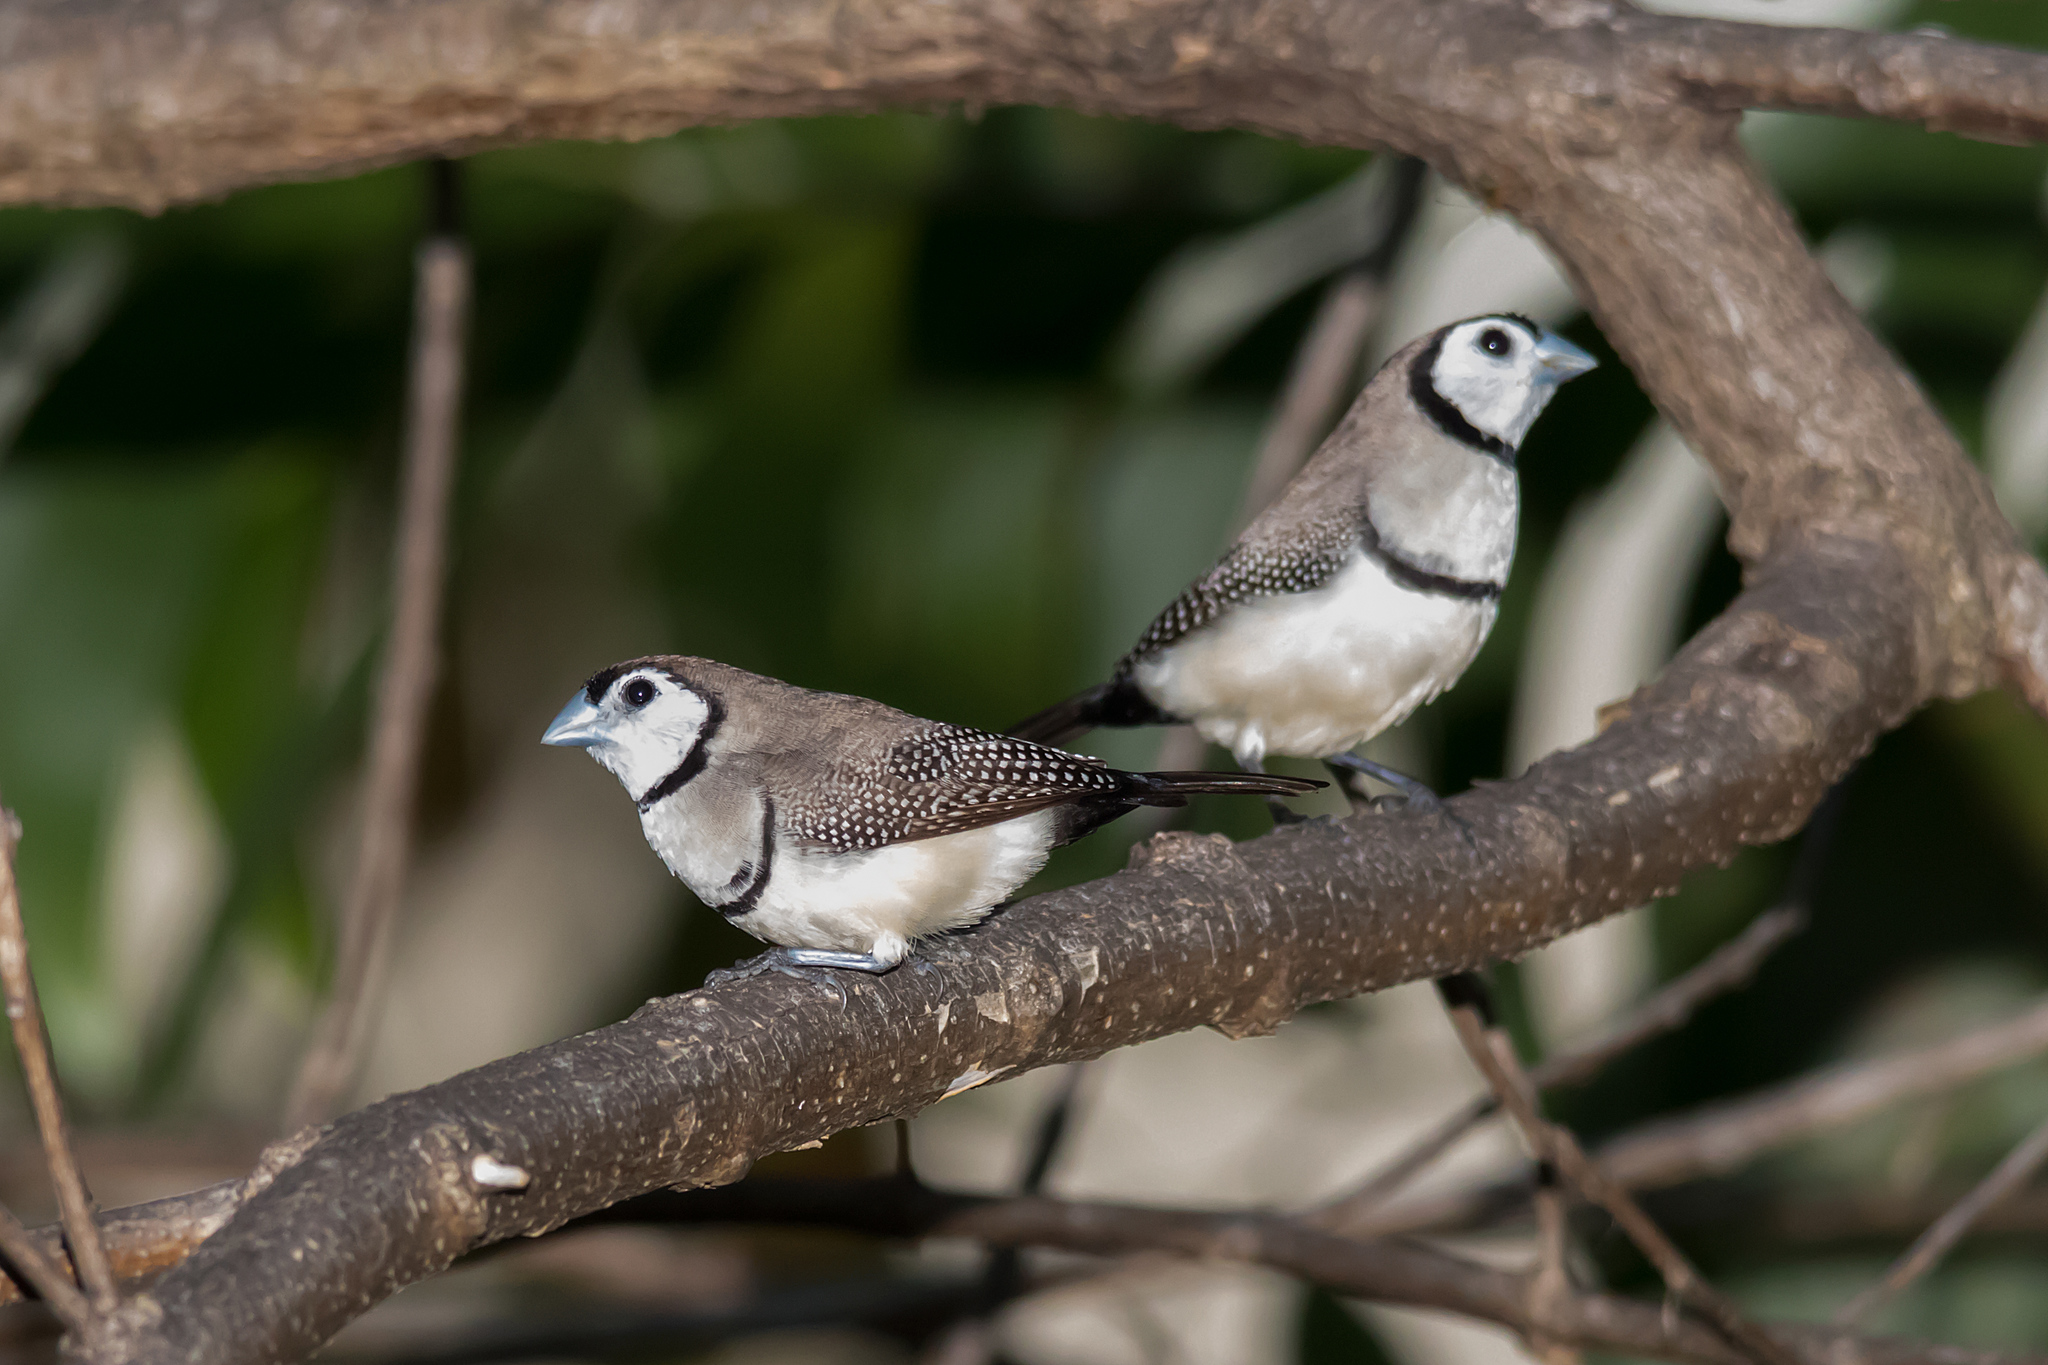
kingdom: Animalia
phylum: Chordata
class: Aves
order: Passeriformes
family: Estrildidae
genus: Taeniopygia
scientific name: Taeniopygia bichenovii
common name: Double-barred finch
